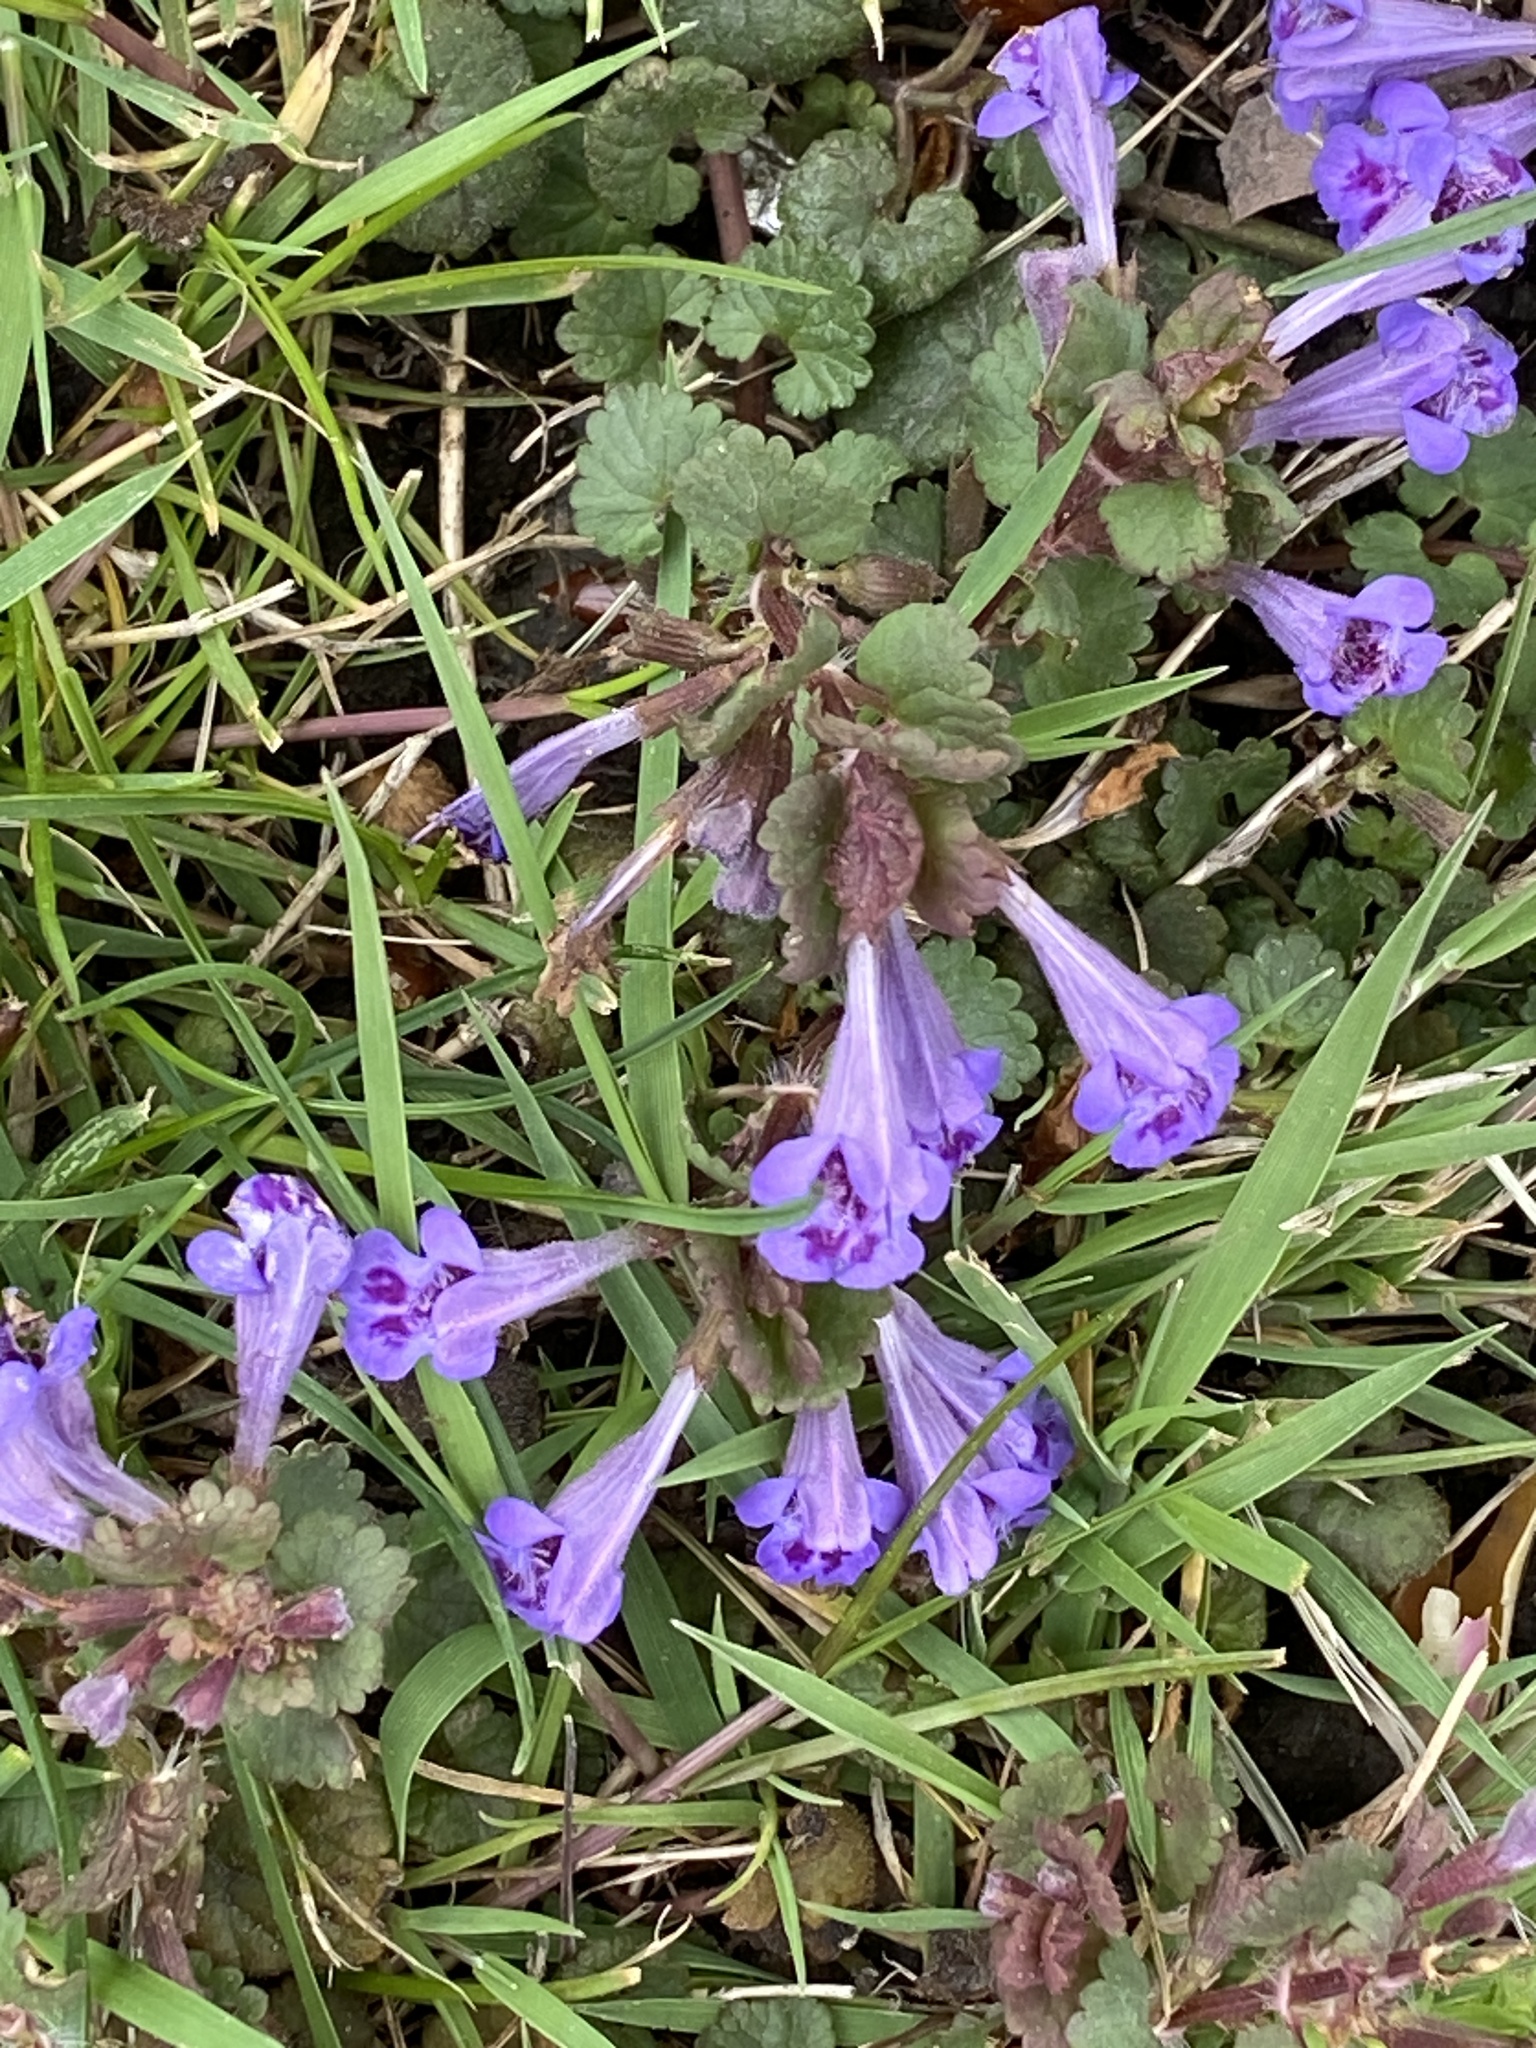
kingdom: Plantae
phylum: Tracheophyta
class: Magnoliopsida
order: Lamiales
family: Lamiaceae
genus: Glechoma
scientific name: Glechoma hederacea
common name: Ground ivy
